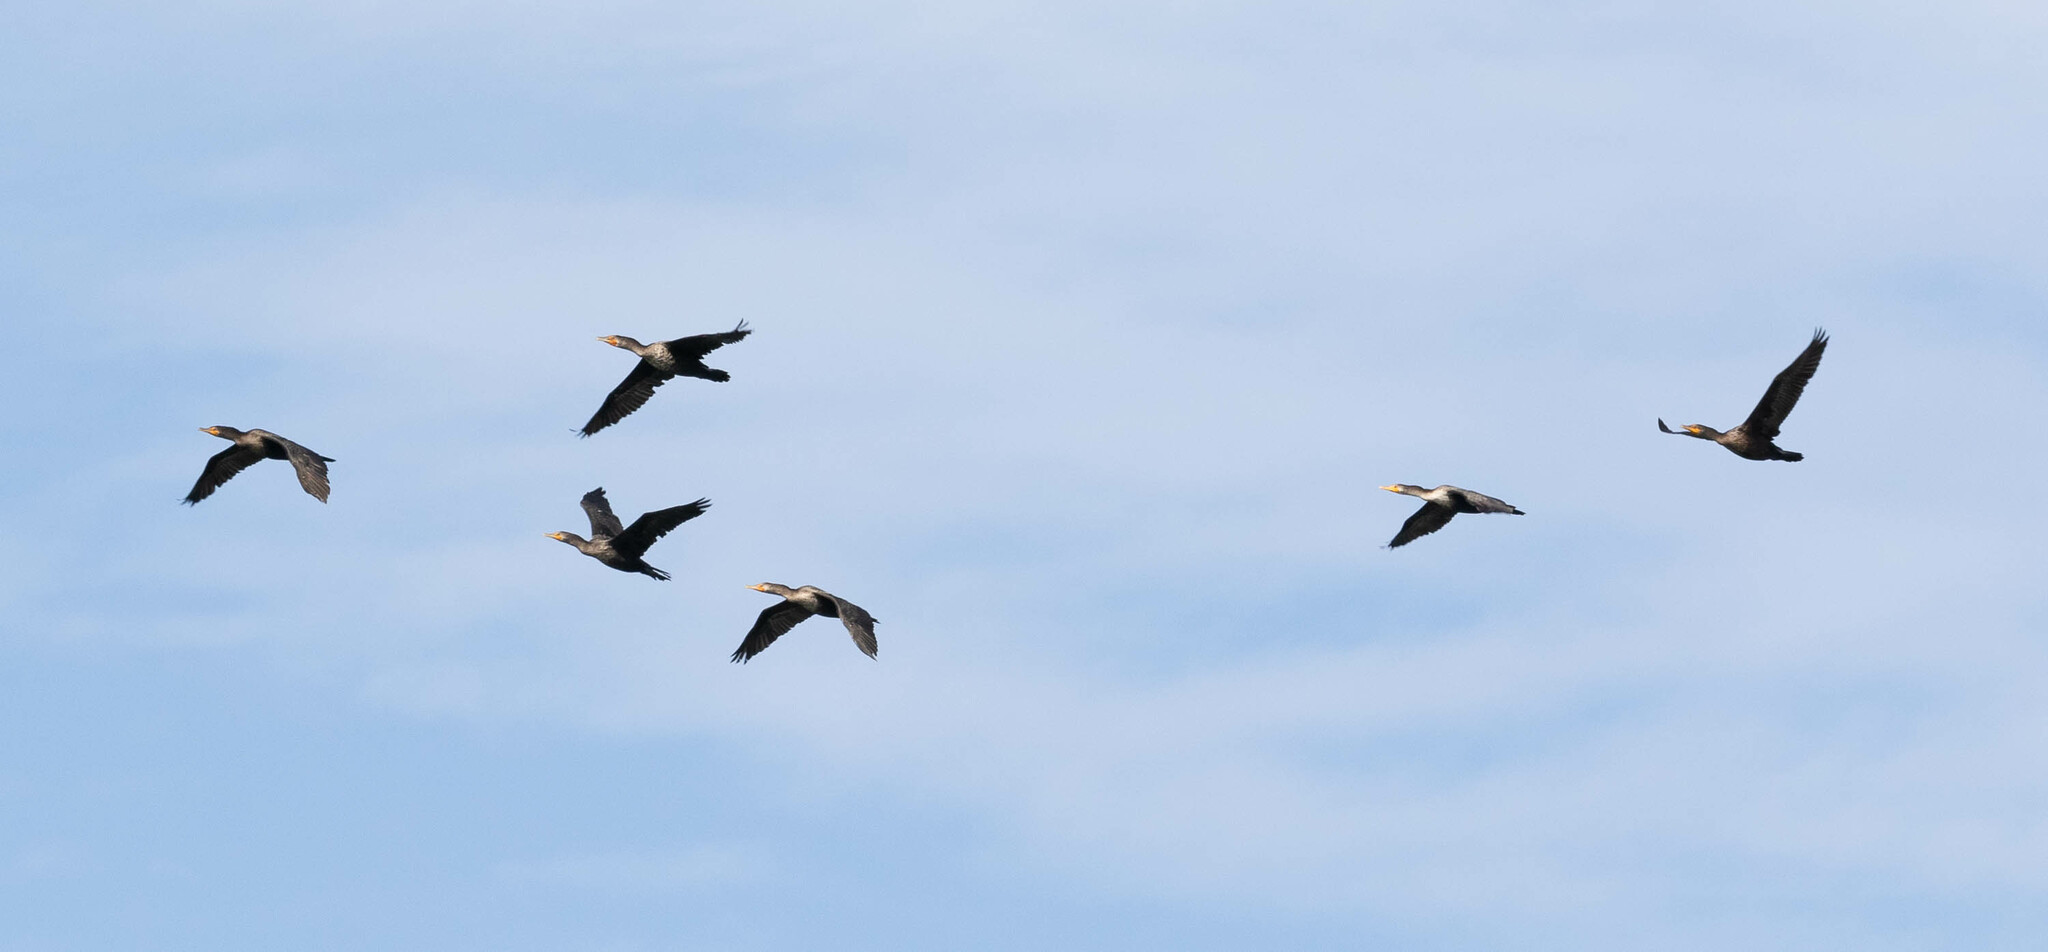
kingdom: Animalia
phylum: Chordata
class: Aves
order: Suliformes
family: Phalacrocoracidae
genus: Phalacrocorax
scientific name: Phalacrocorax auritus
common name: Double-crested cormorant
